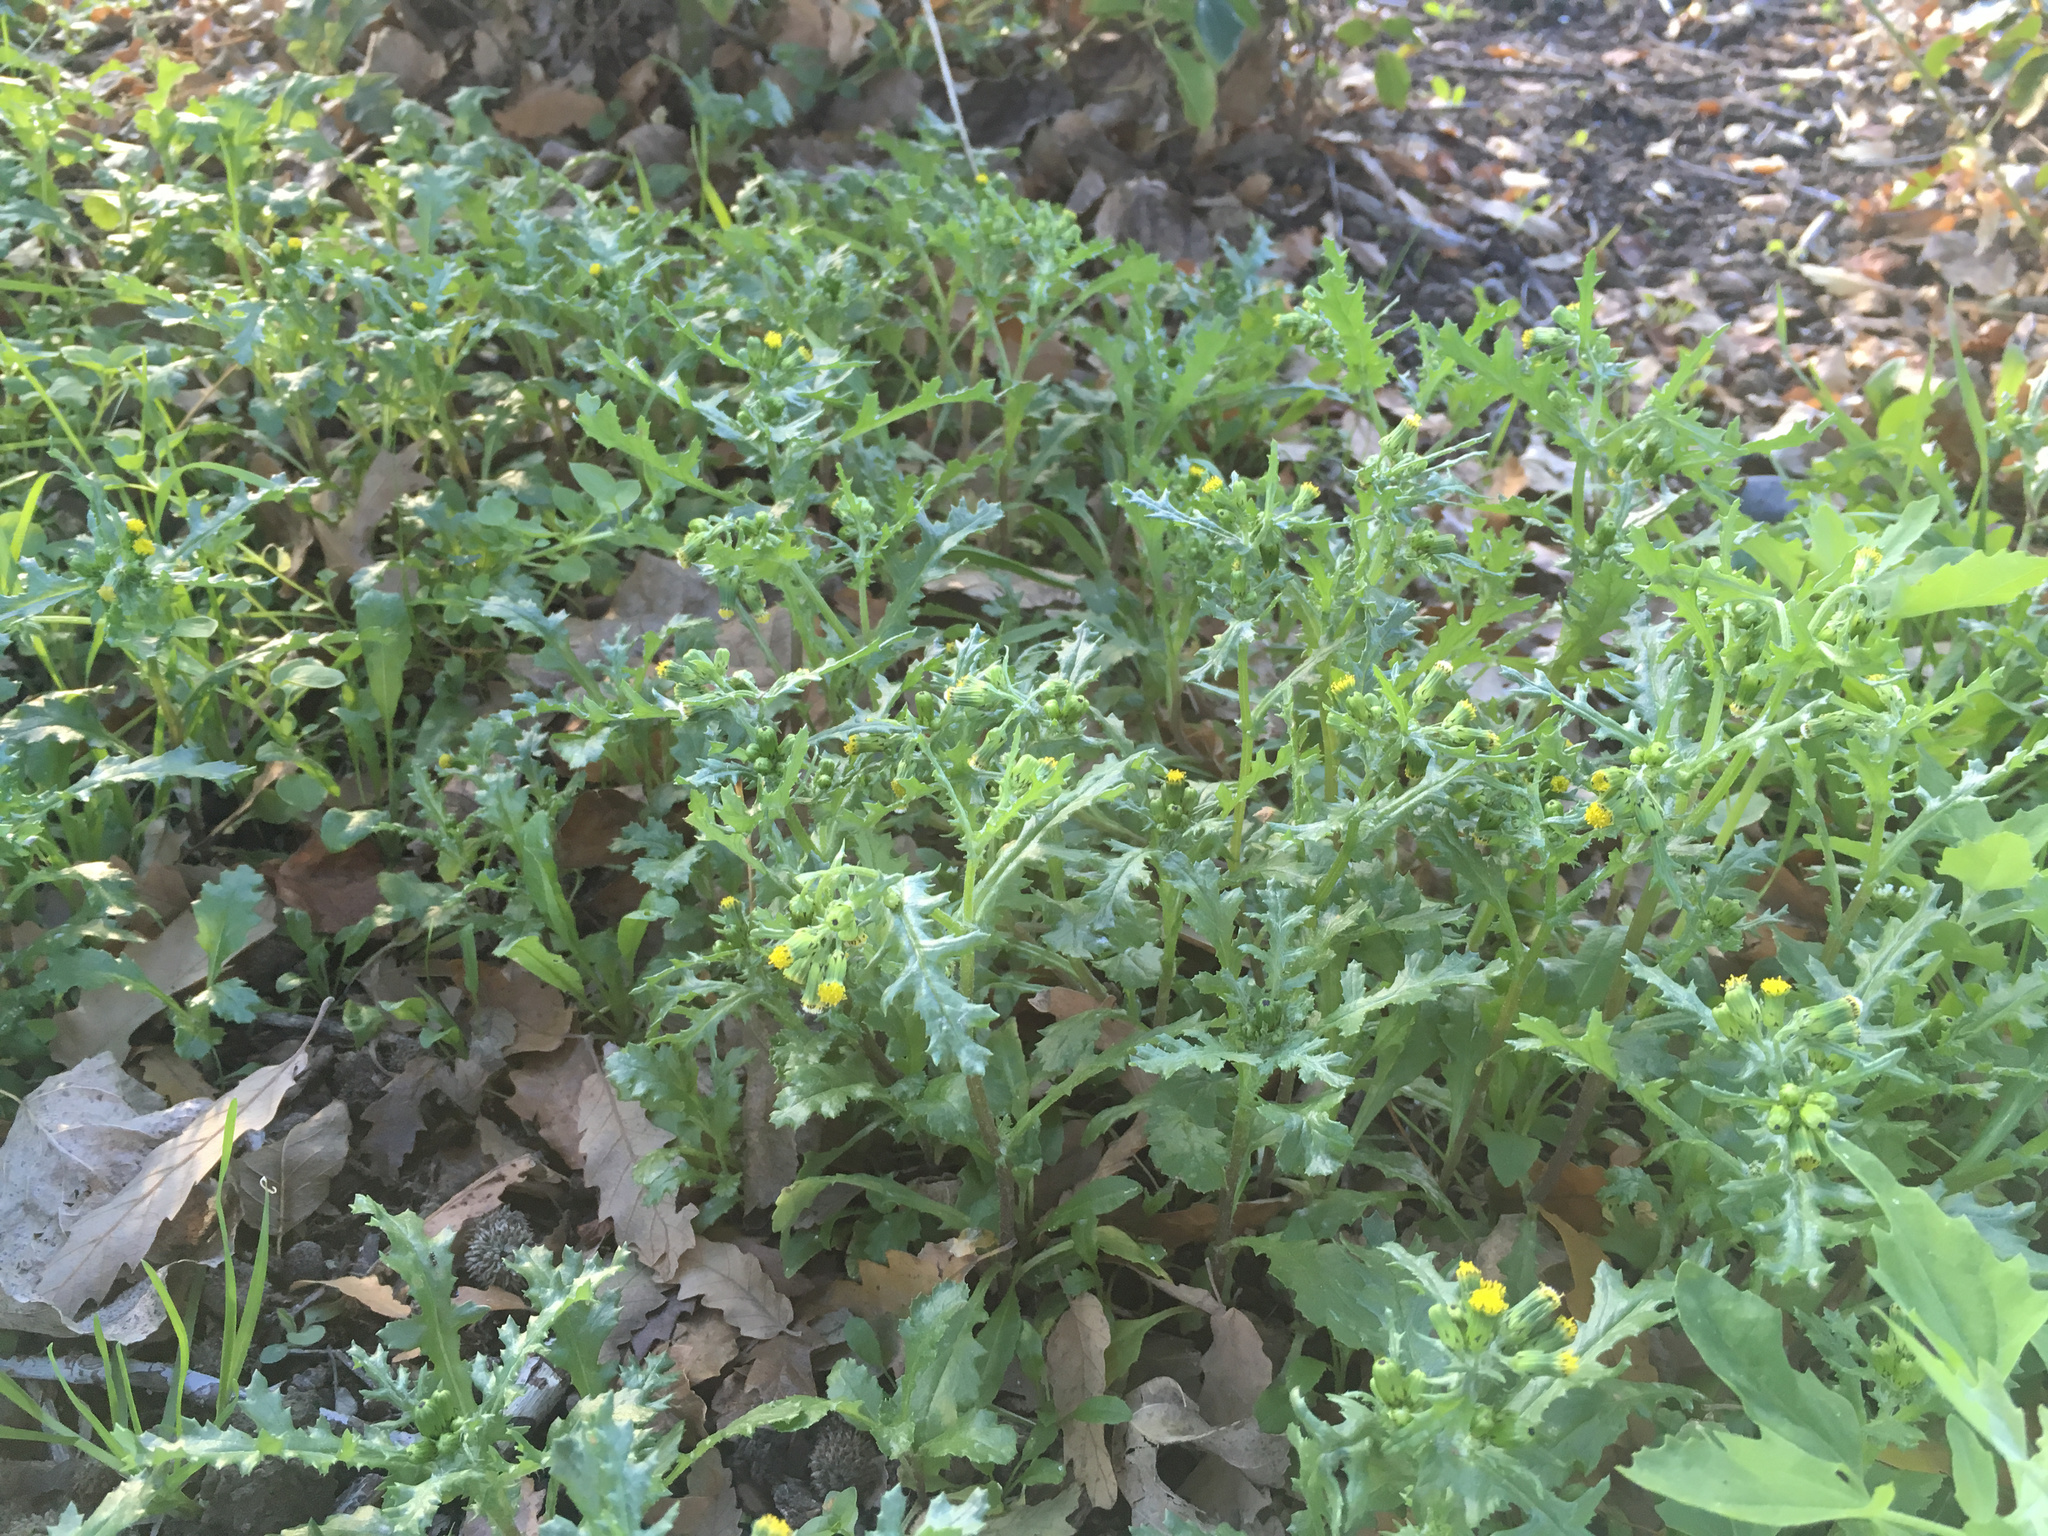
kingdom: Plantae
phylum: Tracheophyta
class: Magnoliopsida
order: Asterales
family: Asteraceae
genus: Senecio
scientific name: Senecio vulgaris
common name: Old-man-in-the-spring
